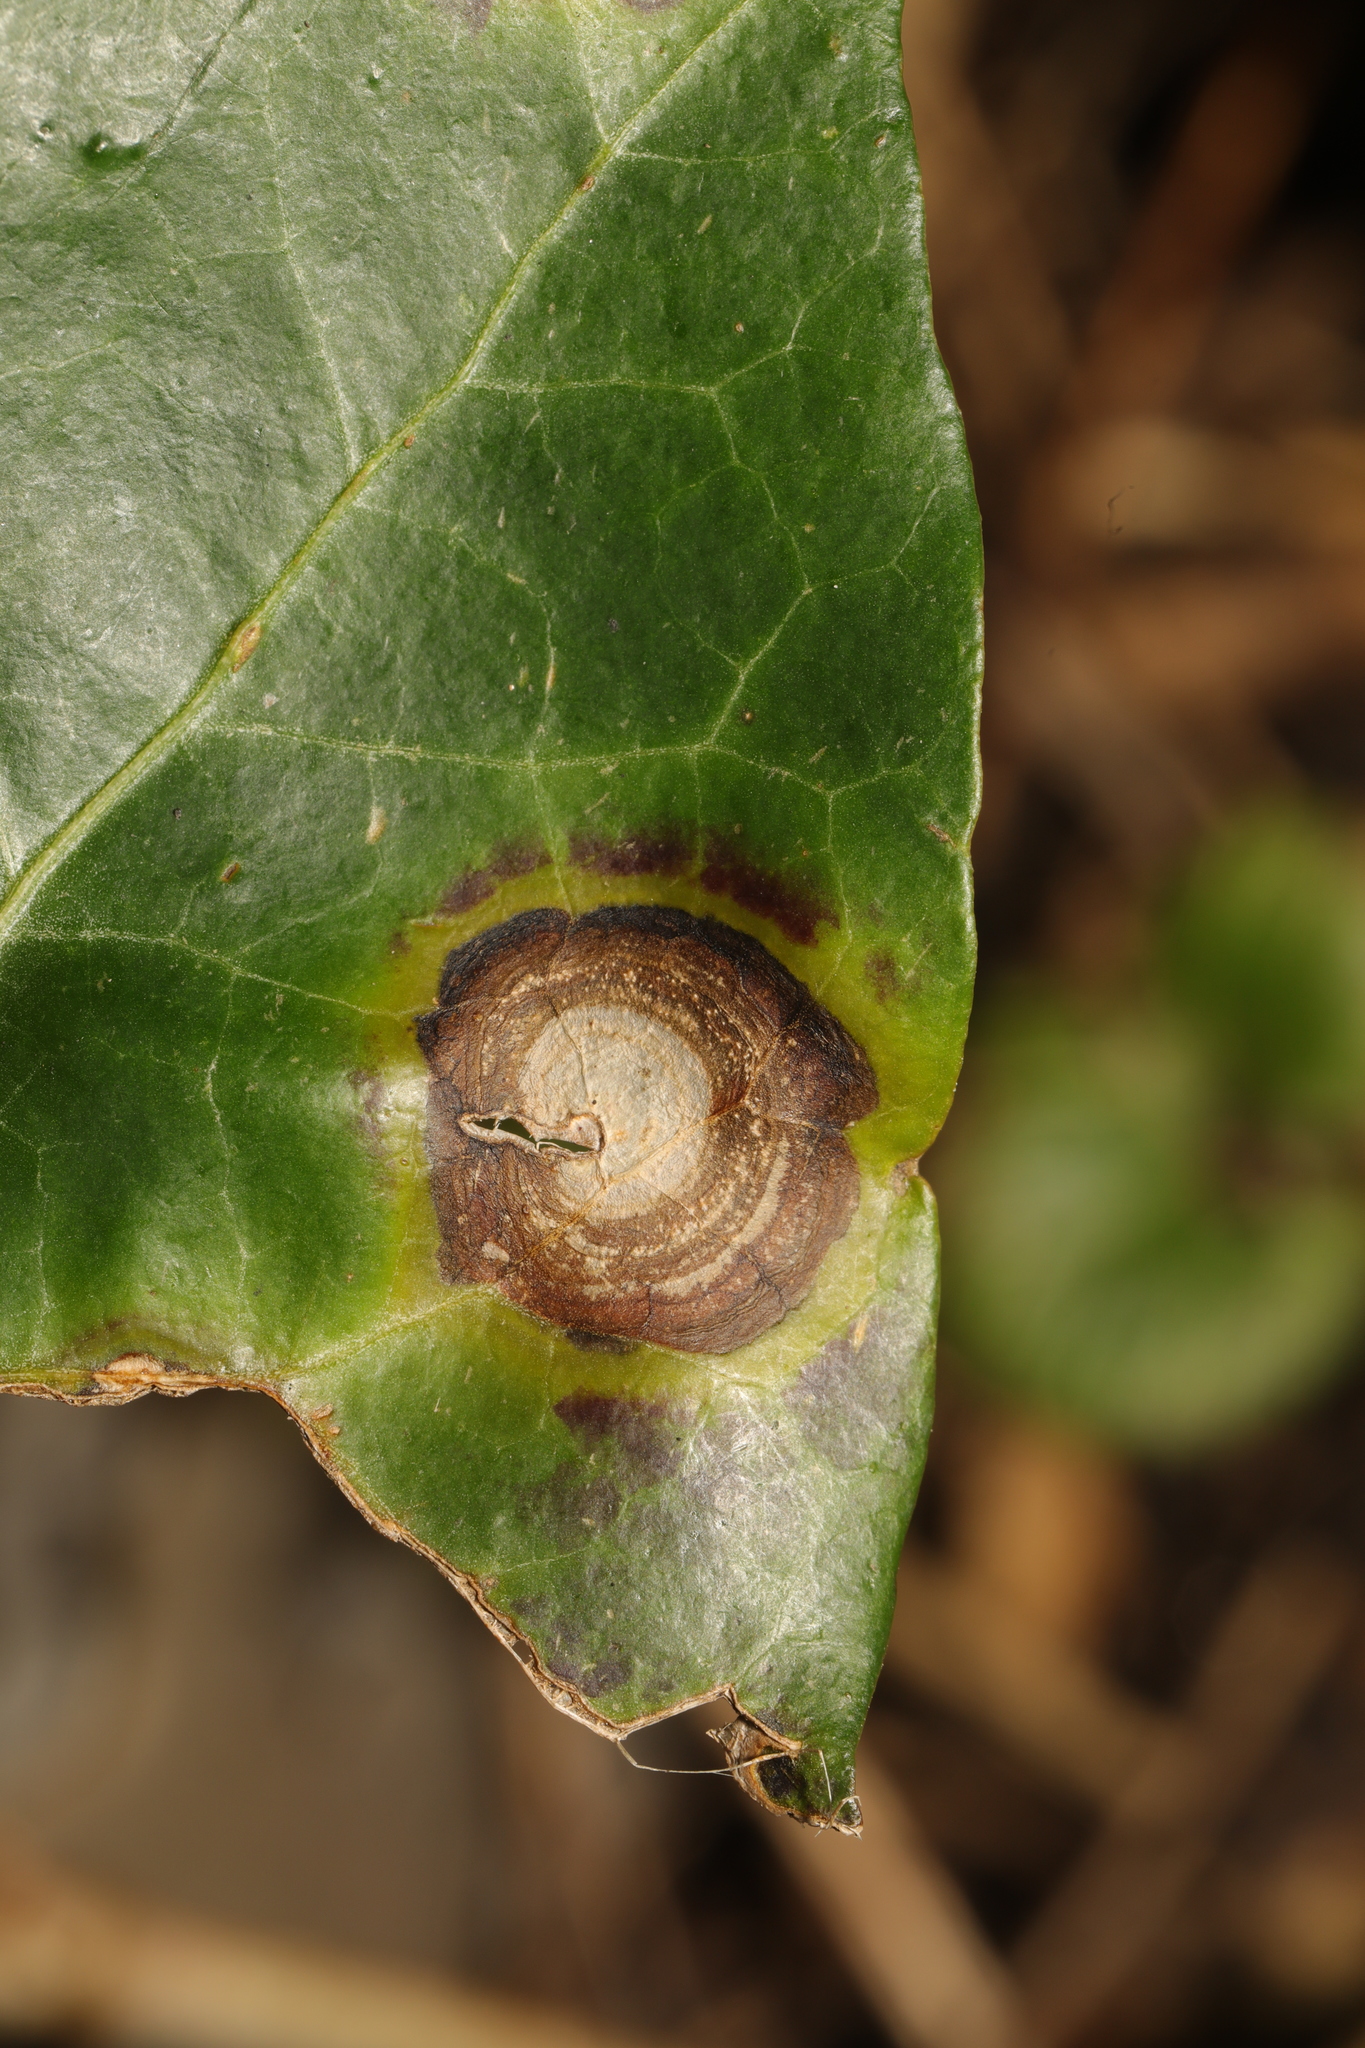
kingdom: Fungi
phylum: Ascomycota
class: Dothideomycetes
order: Pleosporales
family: Didymellaceae
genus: Boeremia
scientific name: Boeremia hedericola
